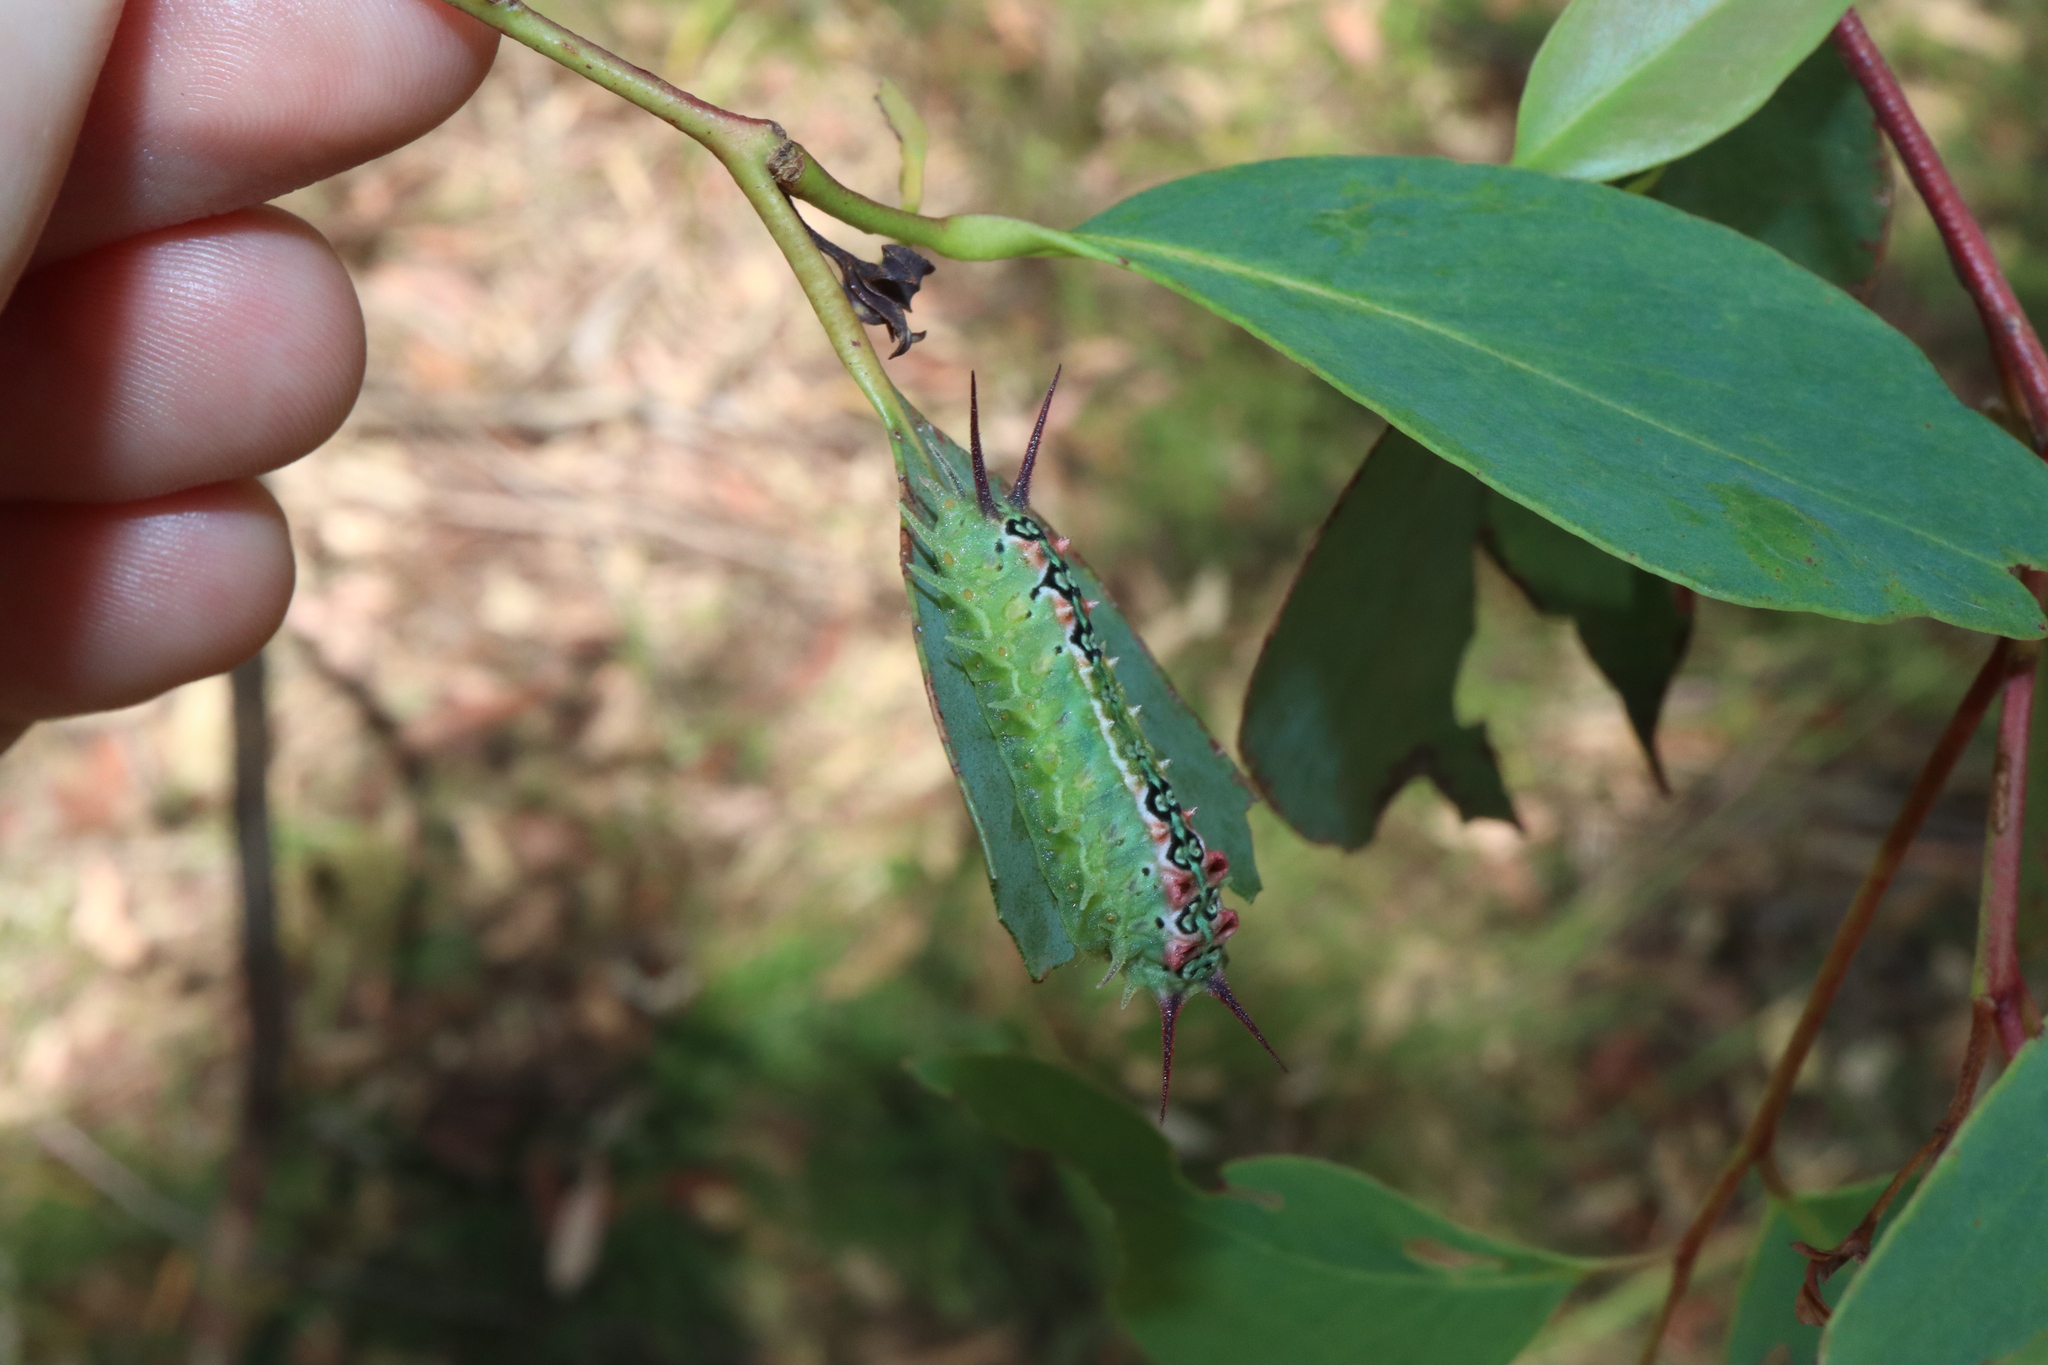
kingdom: Animalia
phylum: Arthropoda
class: Insecta
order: Lepidoptera
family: Limacodidae
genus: Doratifera
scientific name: Doratifera quadriguttata
